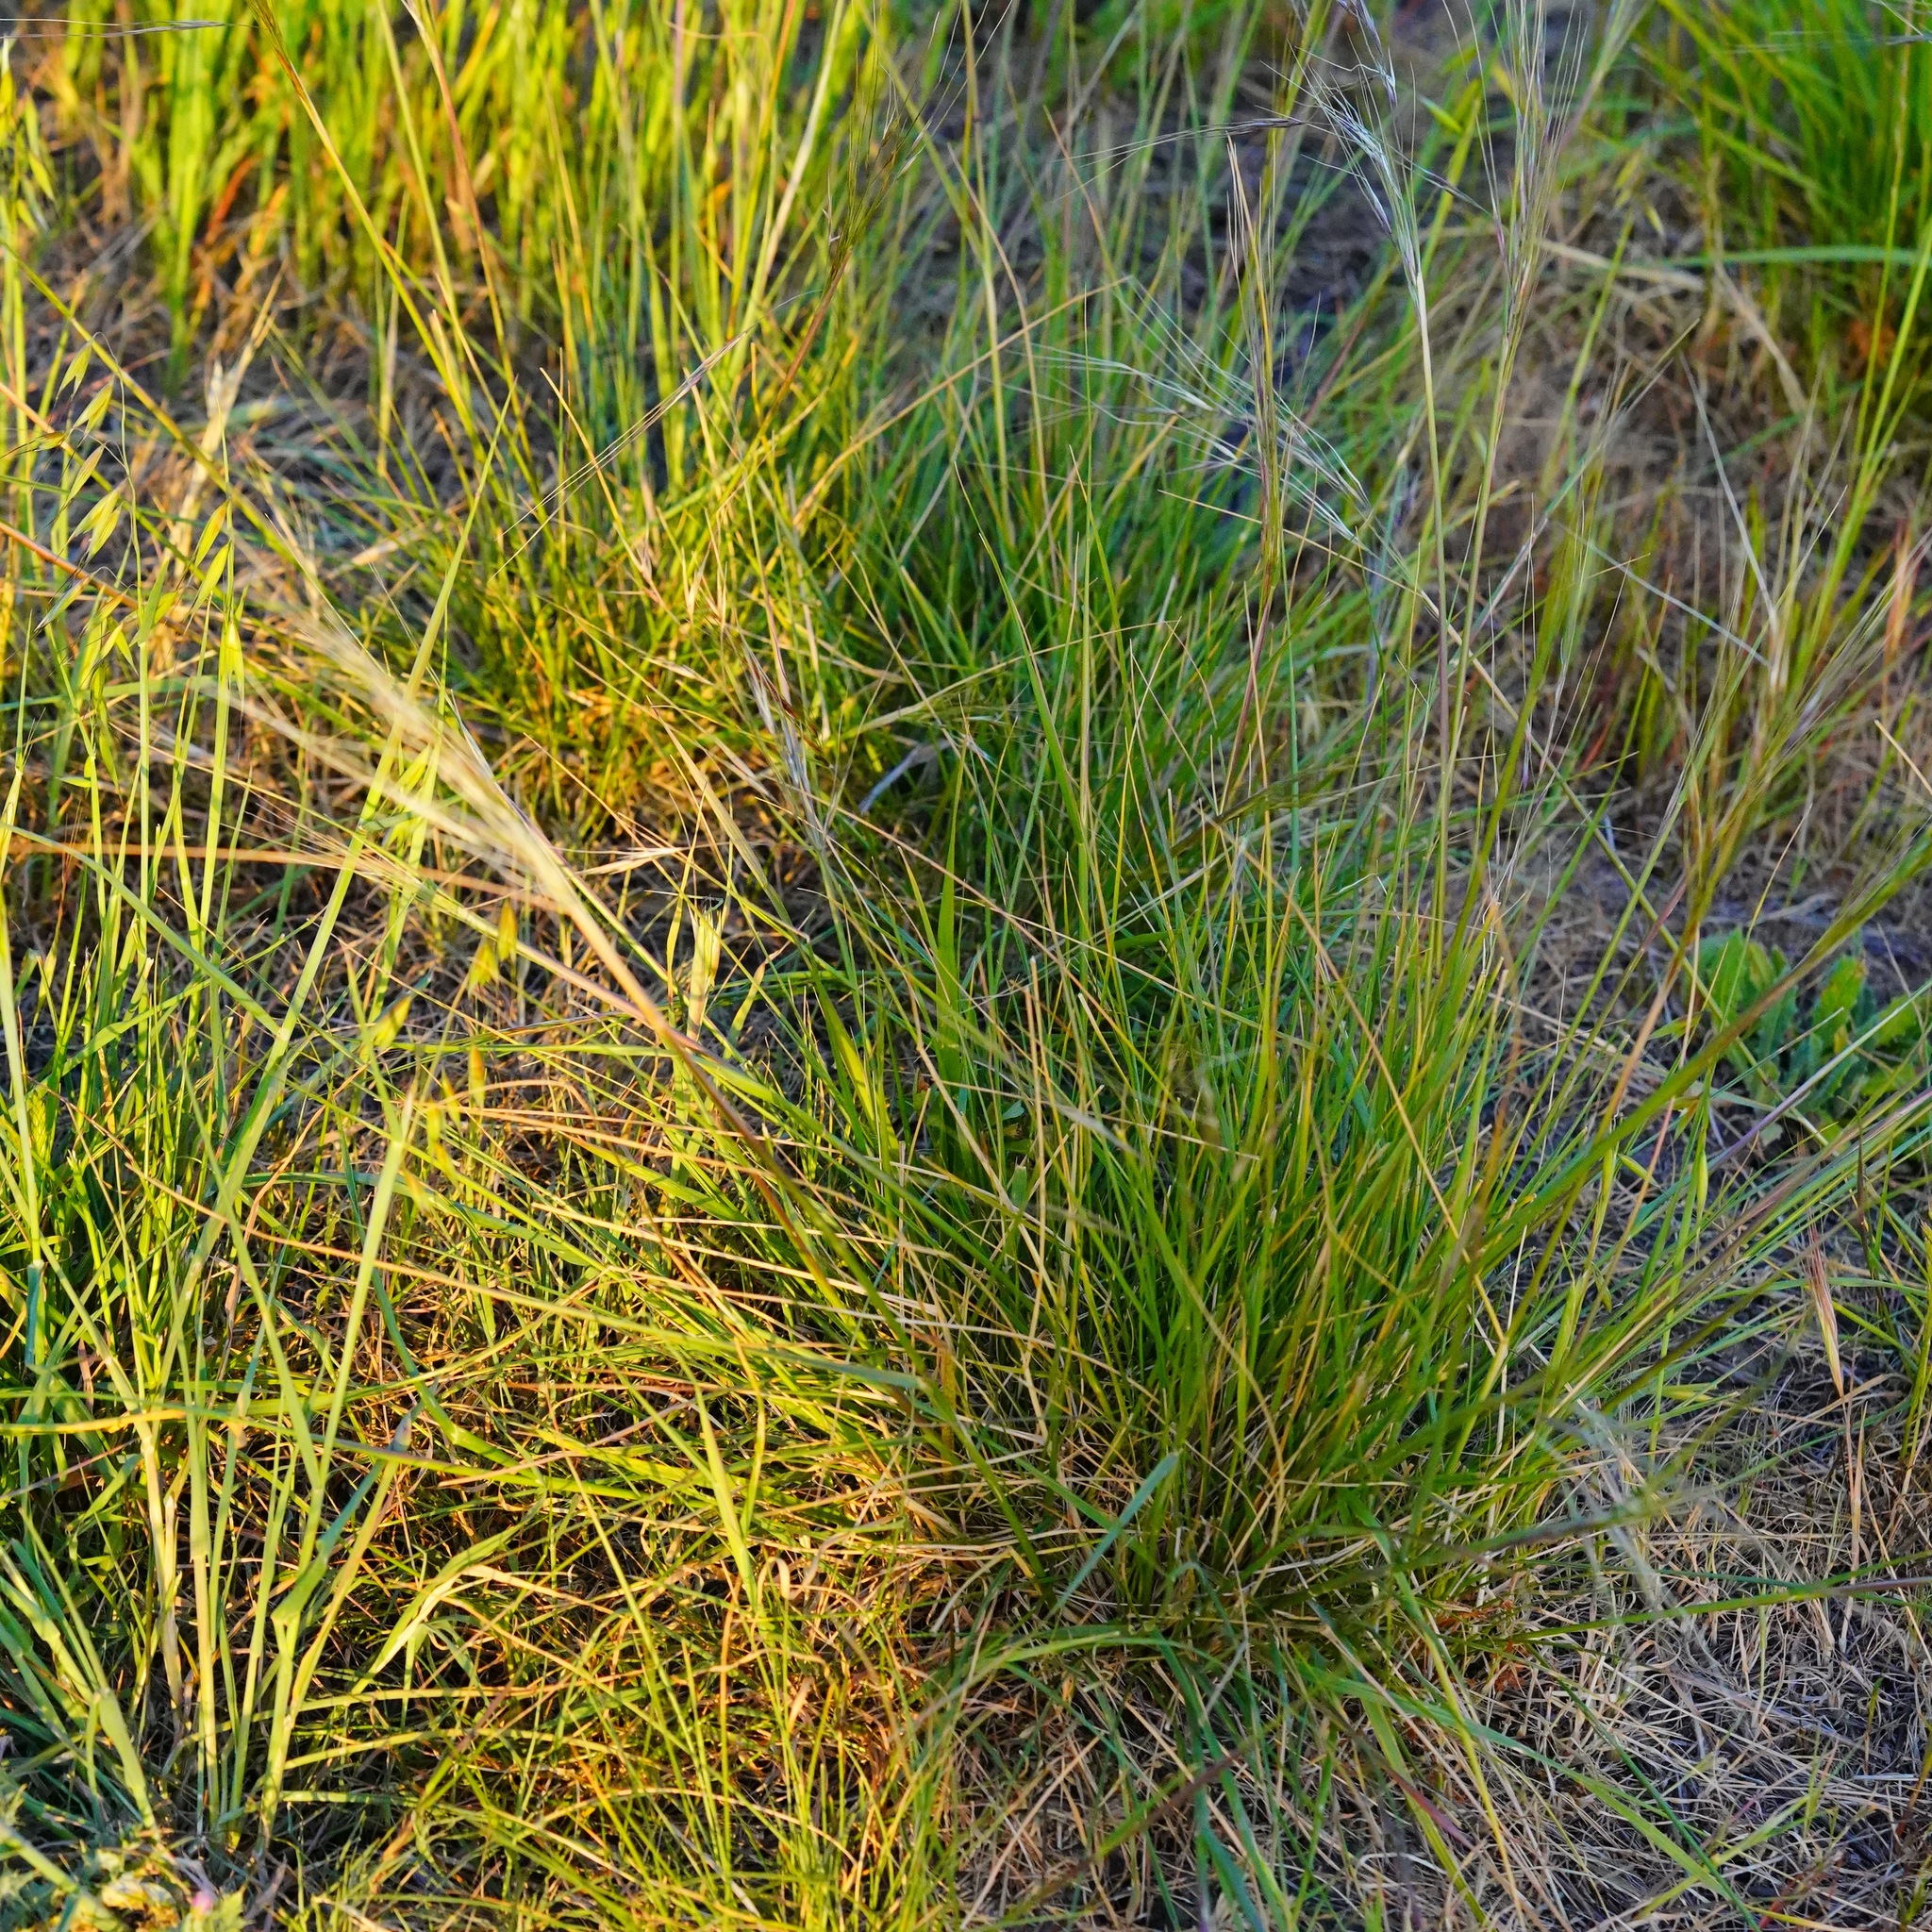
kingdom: Plantae
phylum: Tracheophyta
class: Liliopsida
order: Poales
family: Poaceae
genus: Nassella
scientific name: Nassella pulchra
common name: Purple needlegrass
